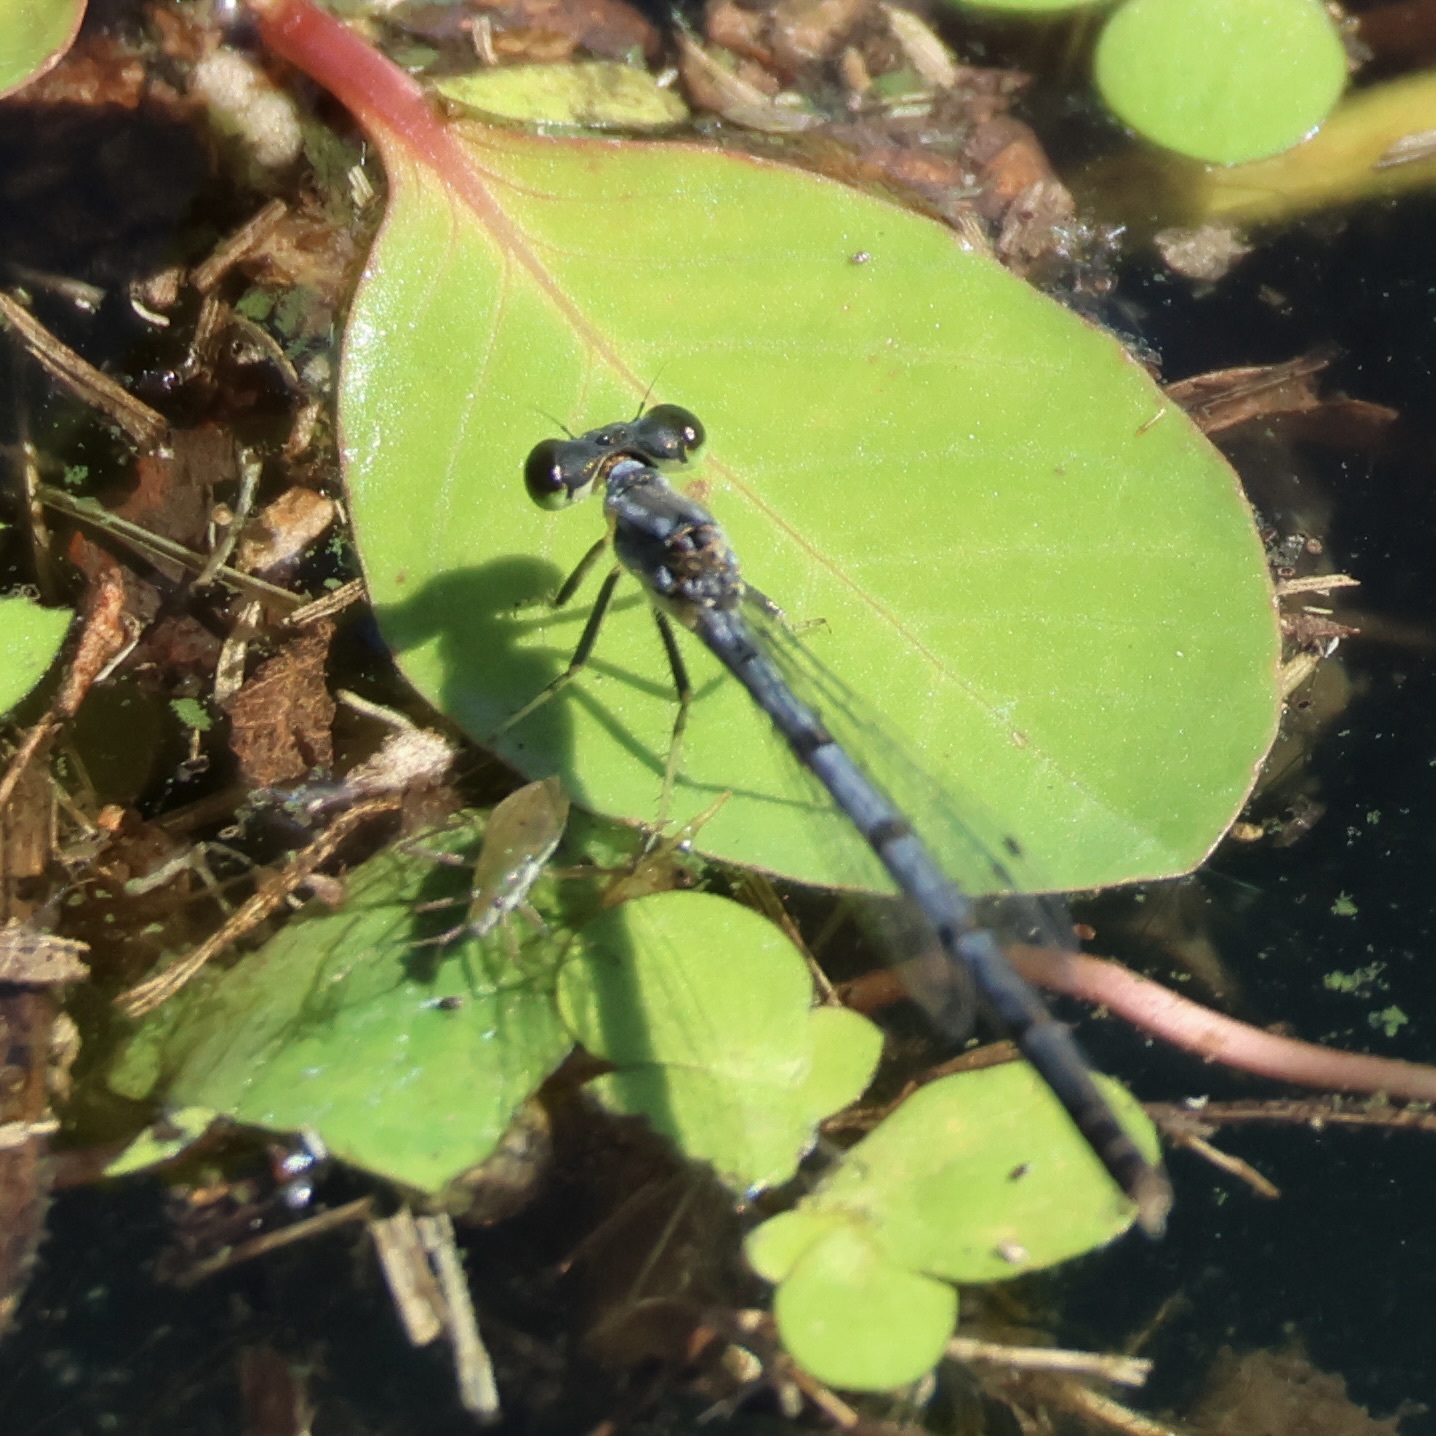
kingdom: Animalia
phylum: Arthropoda
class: Insecta
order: Odonata
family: Coenagrionidae
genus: Ischnura
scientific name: Ischnura posita
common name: Fragile forktail
